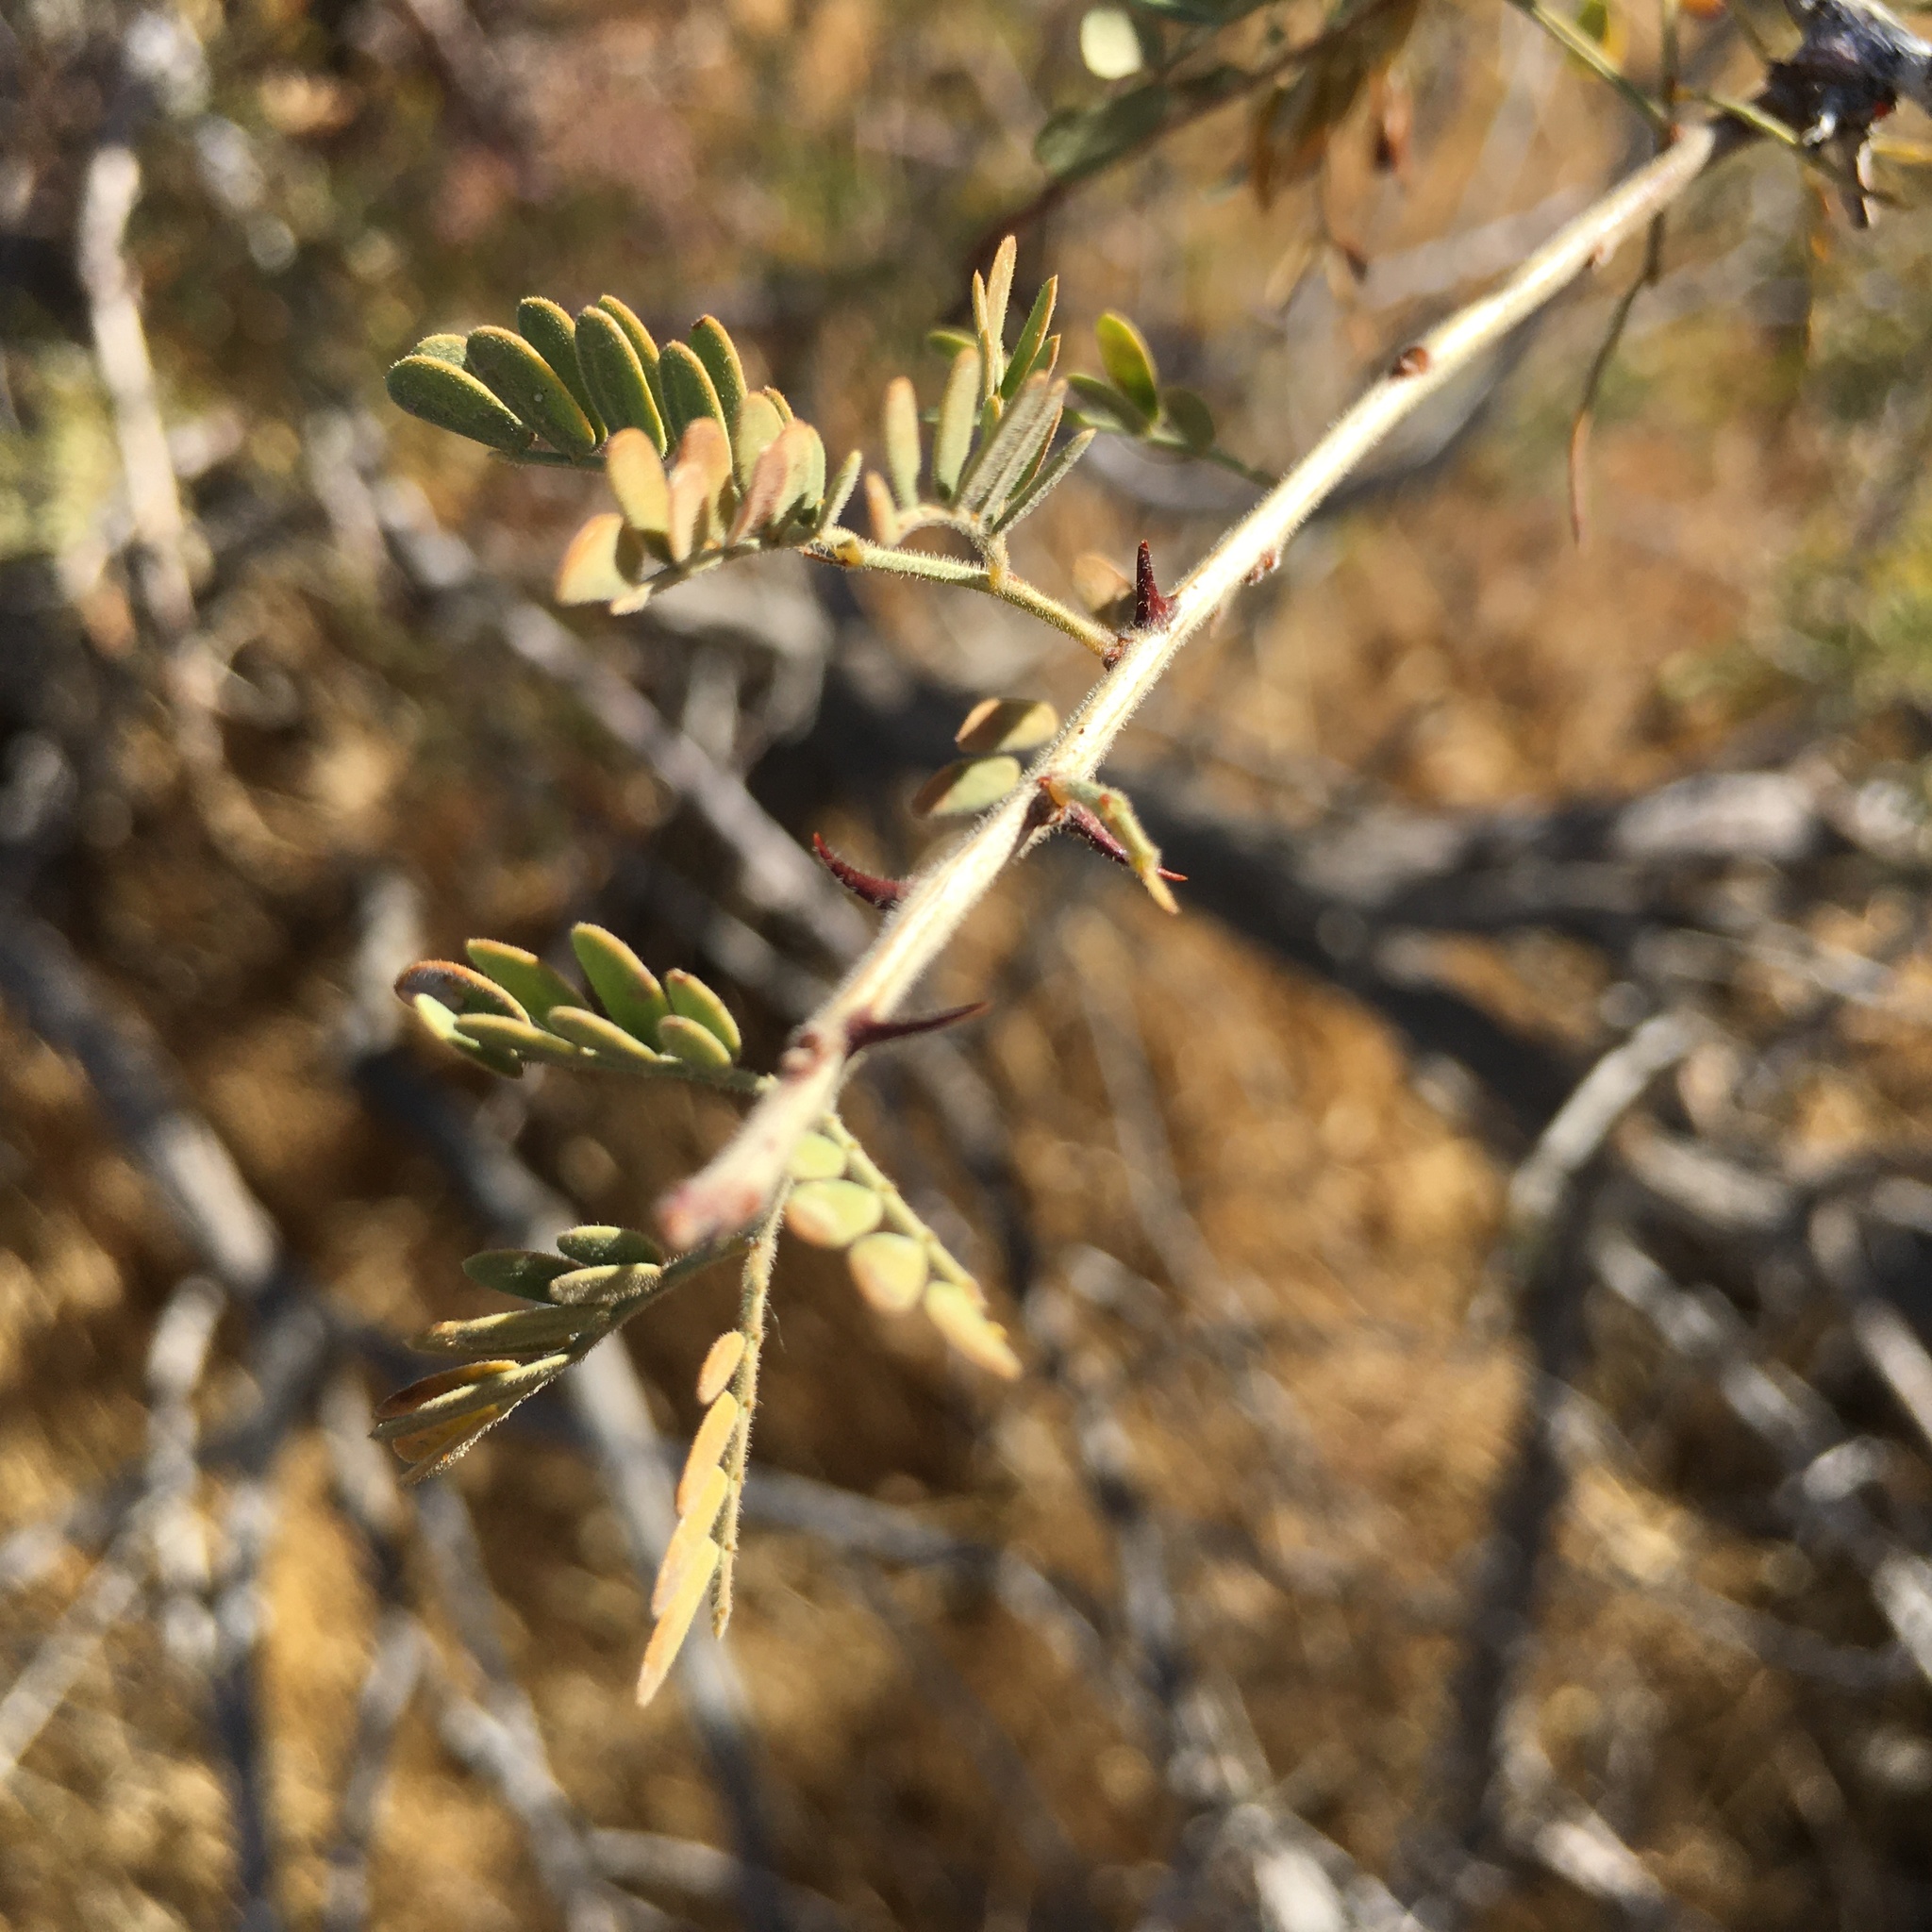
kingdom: Plantae
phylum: Tracheophyta
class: Magnoliopsida
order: Fabales
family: Fabaceae
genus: Senegalia
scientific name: Senegalia greggii
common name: Texas-mimosa
